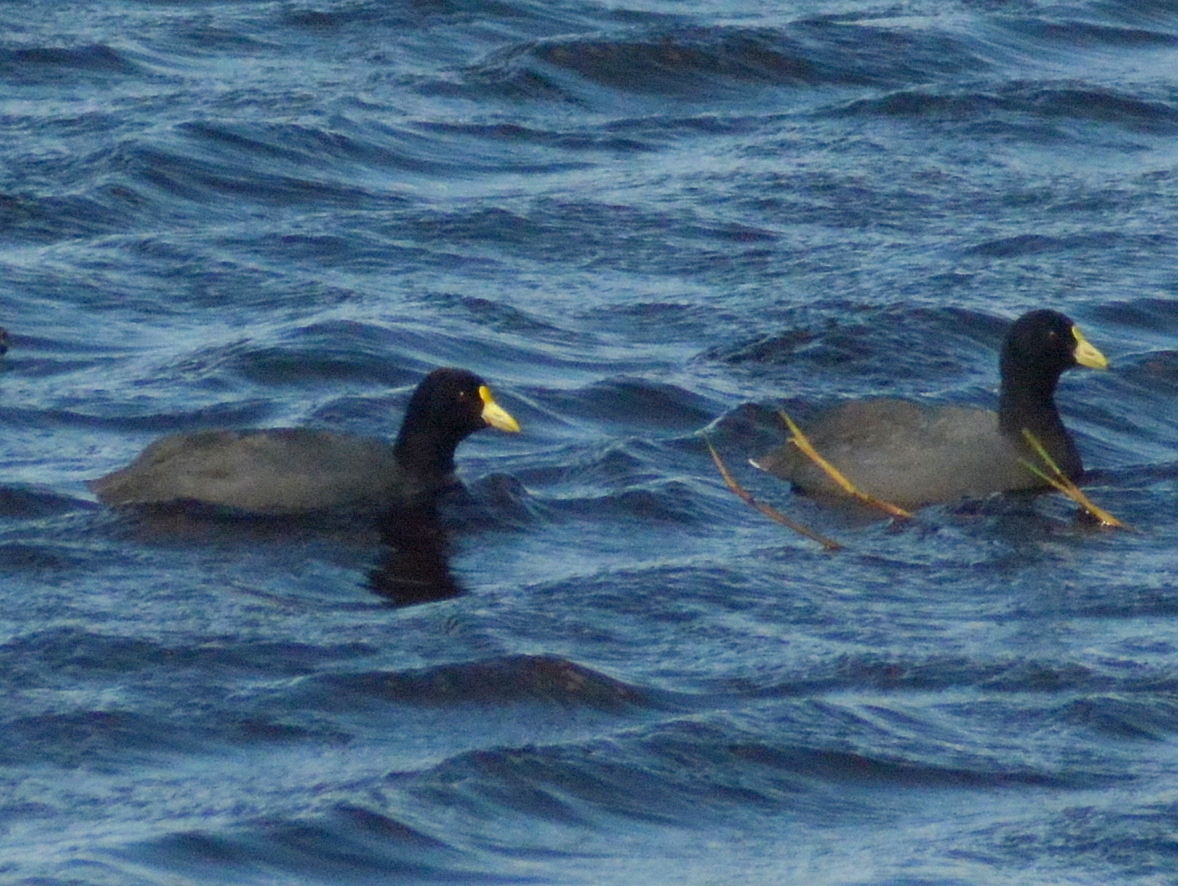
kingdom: Animalia
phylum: Chordata
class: Aves
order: Gruiformes
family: Rallidae
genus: Fulica
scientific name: Fulica leucoptera
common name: White-winged coot
